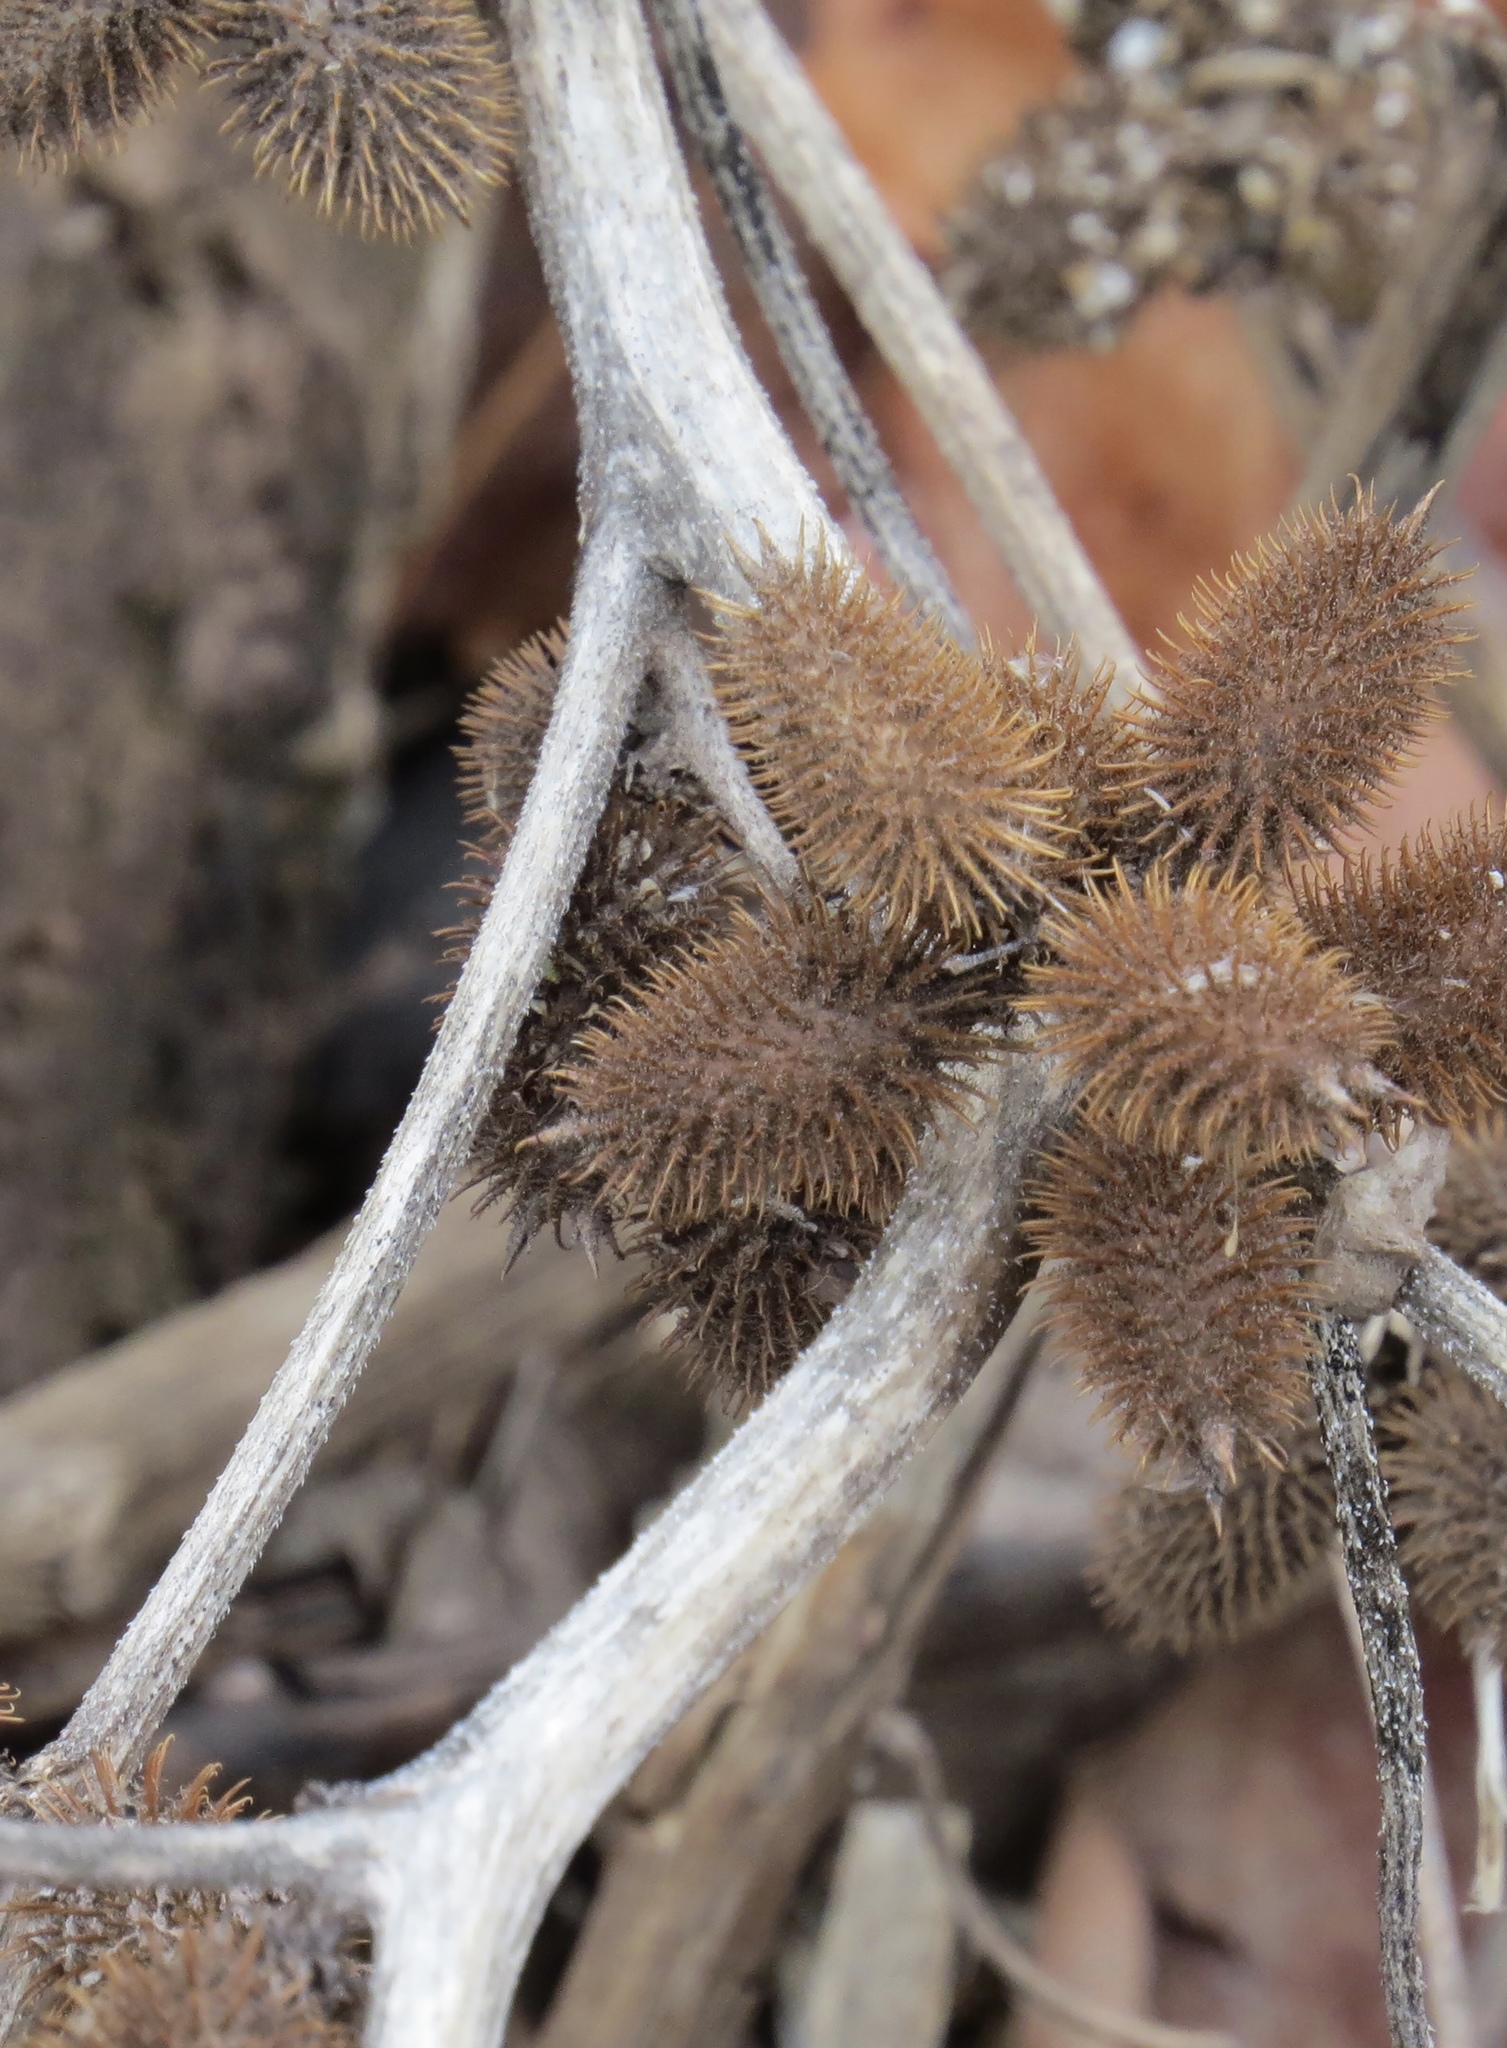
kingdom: Plantae
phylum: Tracheophyta
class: Magnoliopsida
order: Asterales
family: Asteraceae
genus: Xanthium
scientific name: Xanthium strumarium
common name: Rough cocklebur
